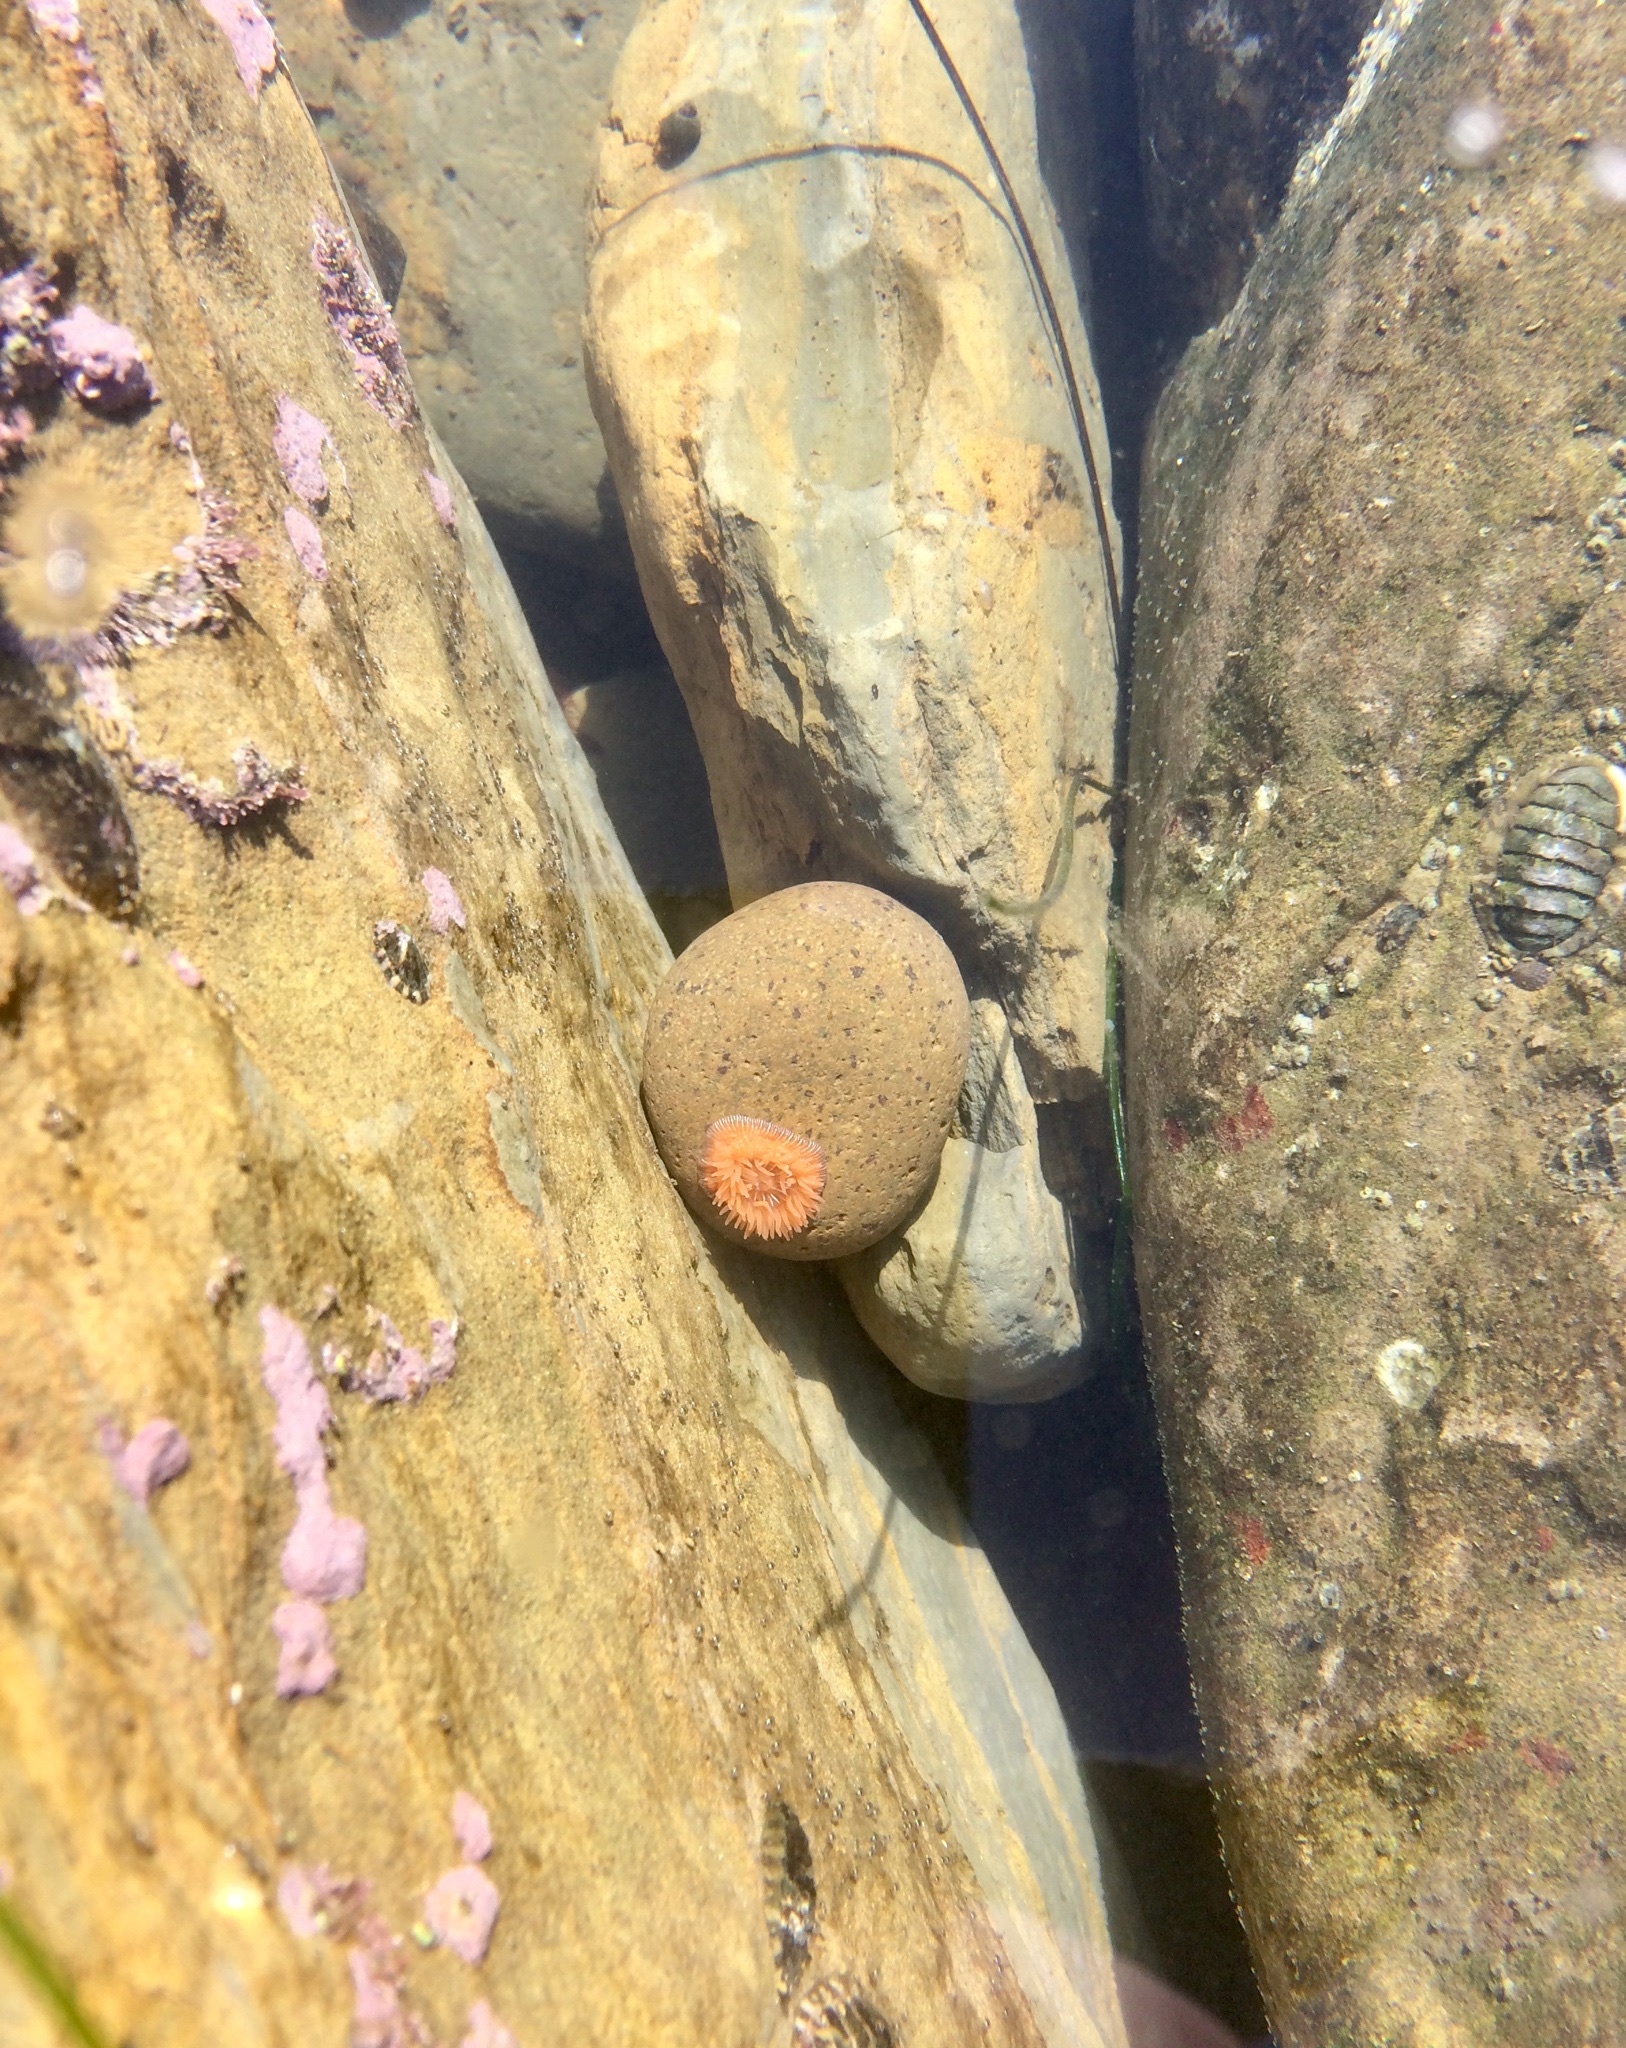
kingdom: Animalia
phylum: Cnidaria
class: Anthozoa
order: Actiniaria
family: Actiniidae
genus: Epiactis
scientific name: Epiactis prolifera
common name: Brooding anemone
